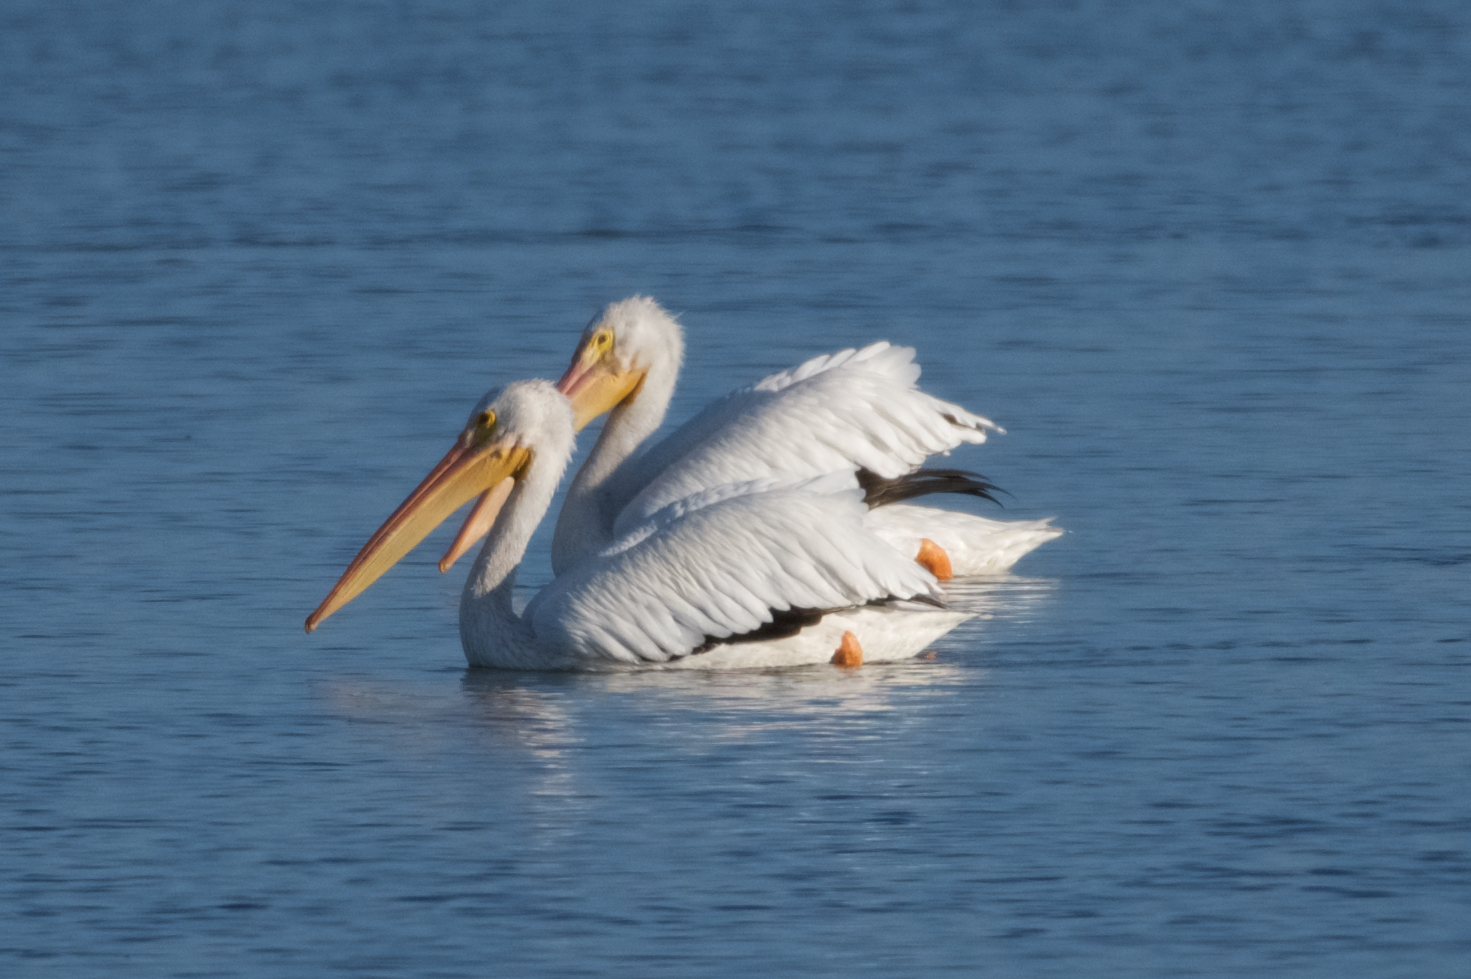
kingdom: Animalia
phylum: Chordata
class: Aves
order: Pelecaniformes
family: Pelecanidae
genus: Pelecanus
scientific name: Pelecanus erythrorhynchos
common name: American white pelican
